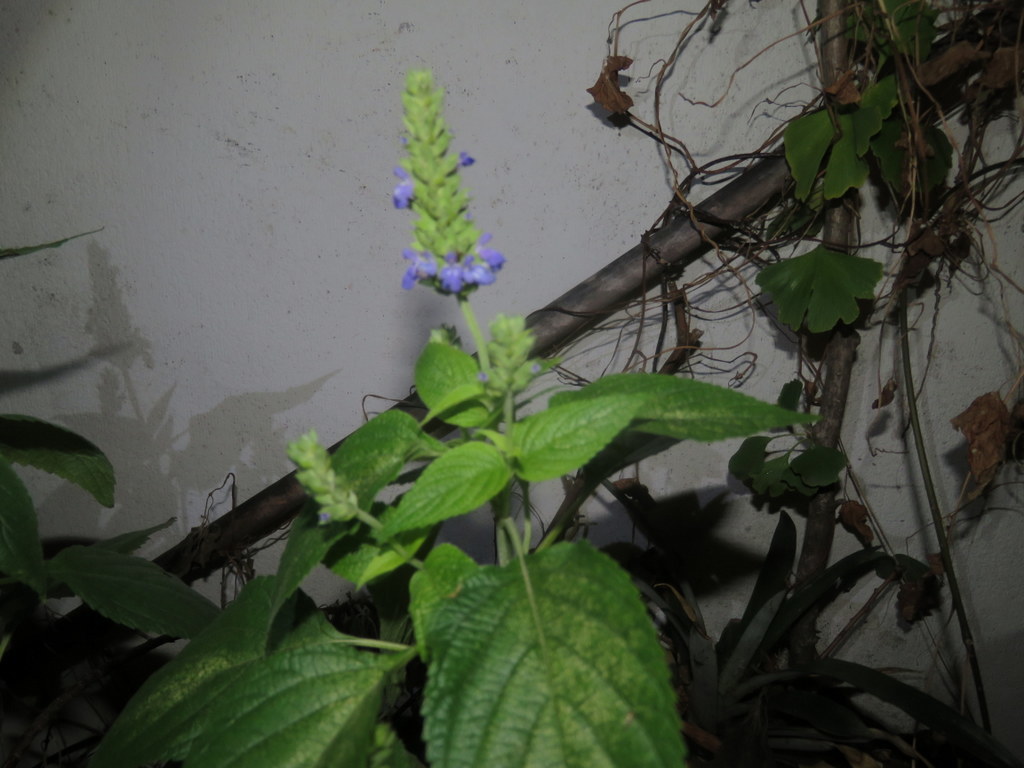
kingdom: Plantae
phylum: Tracheophyta
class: Magnoliopsida
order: Lamiales
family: Lamiaceae
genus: Salvia
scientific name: Salvia hispanica
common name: Chia
